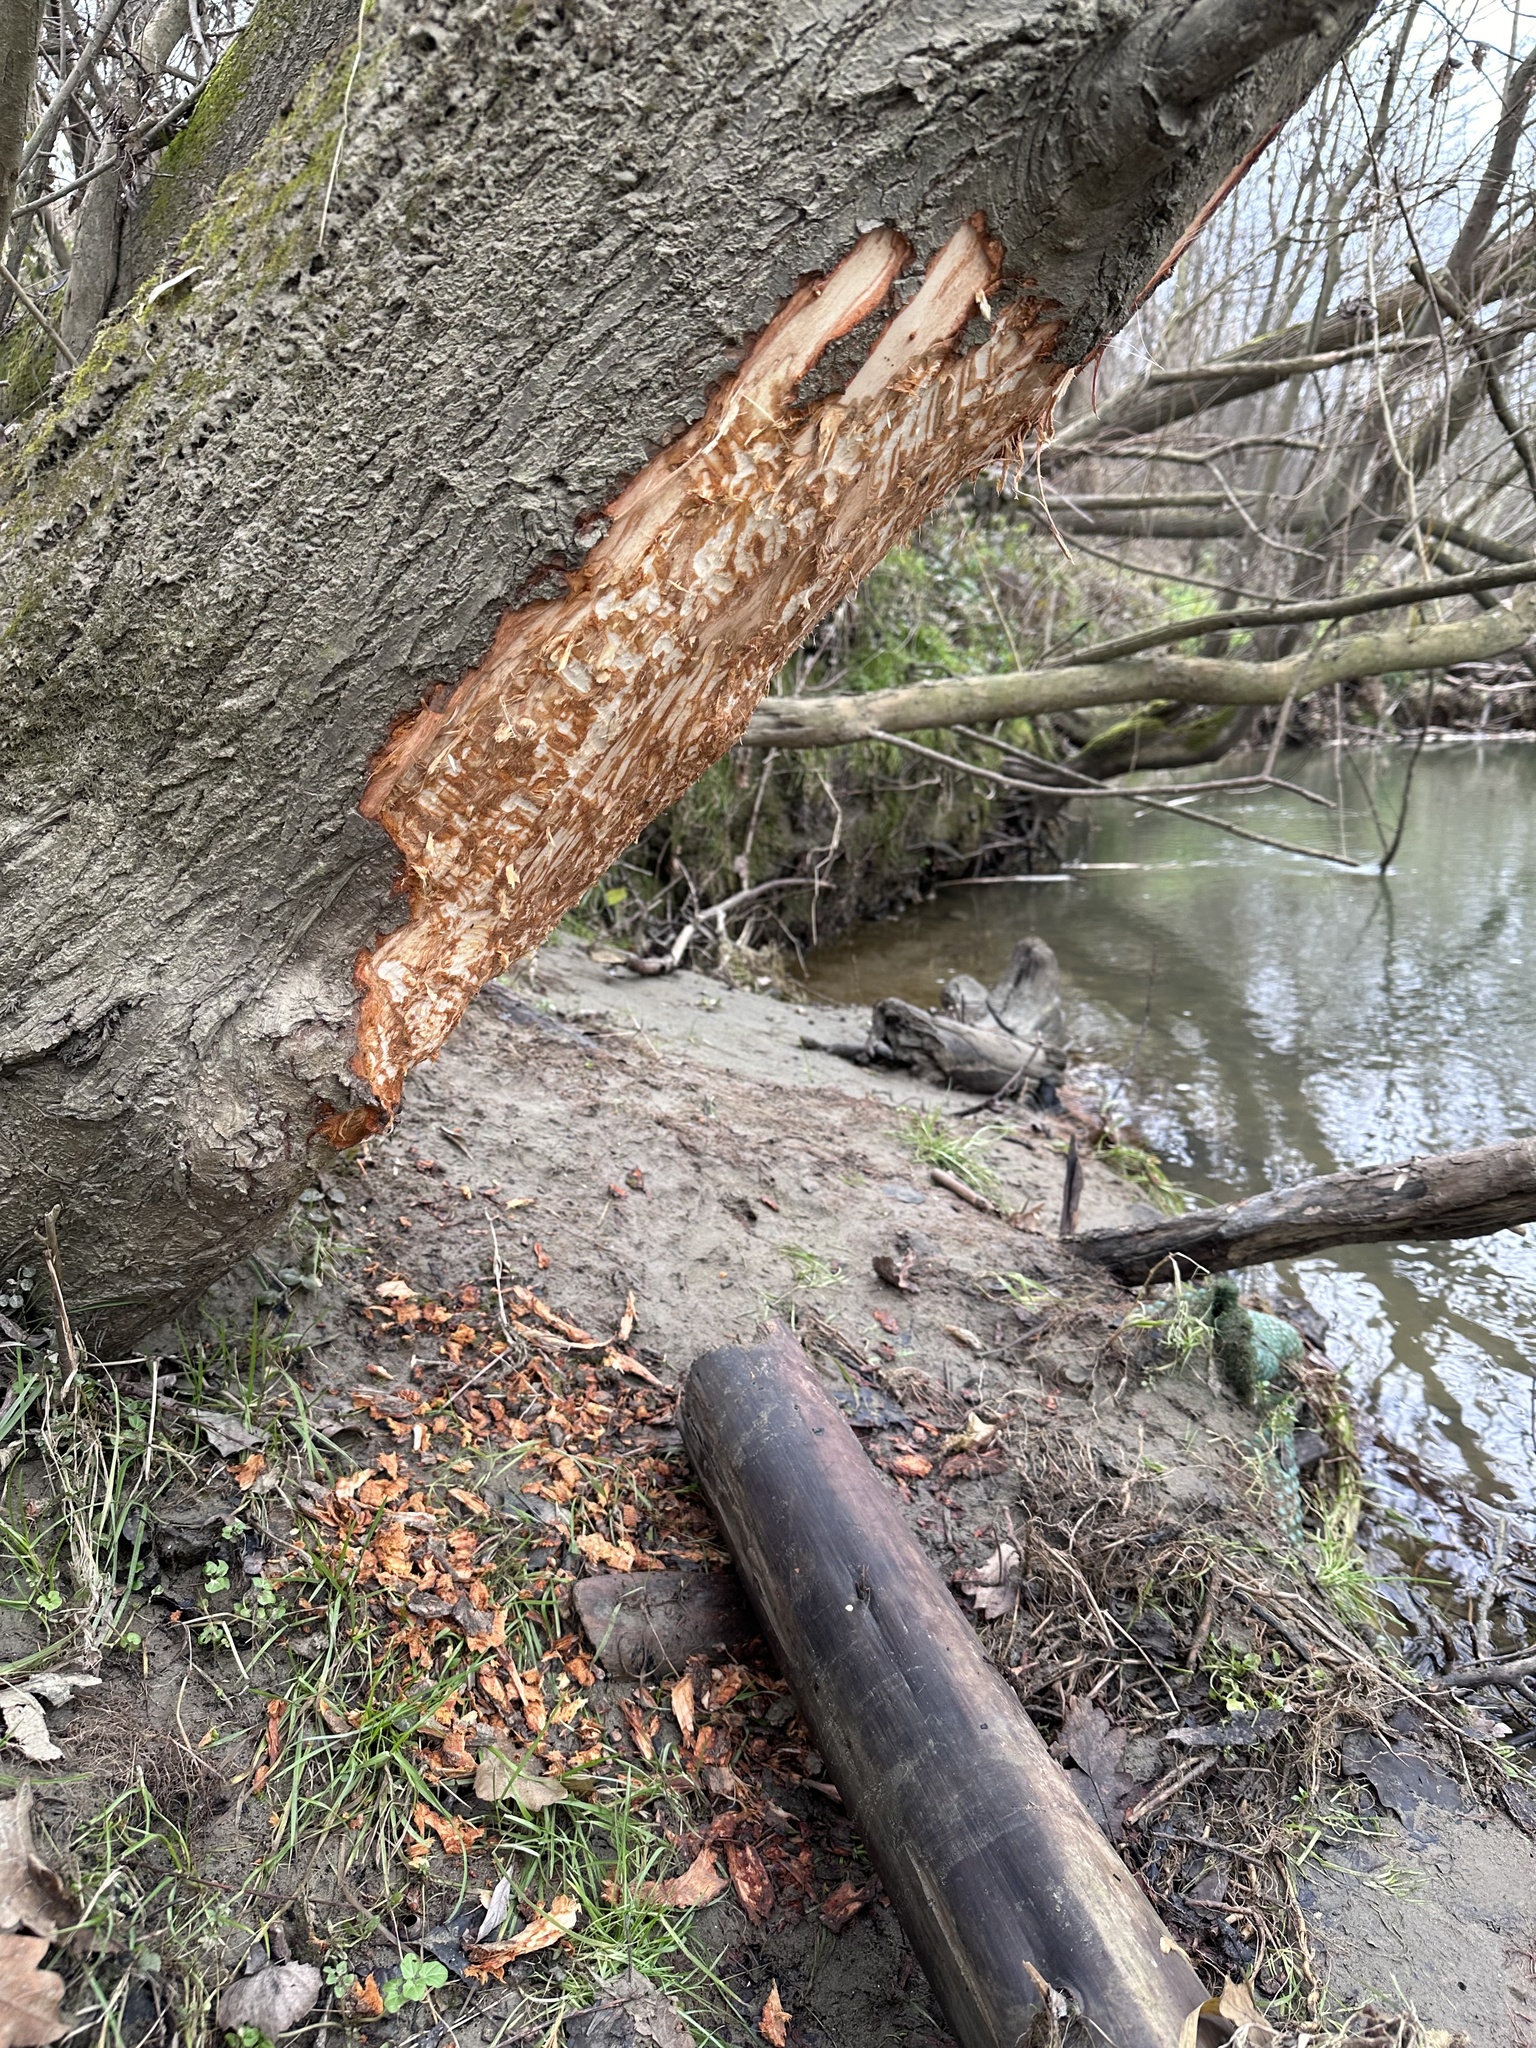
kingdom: Animalia
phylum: Chordata
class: Mammalia
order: Rodentia
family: Castoridae
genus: Castor
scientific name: Castor fiber
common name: Eurasian beaver
